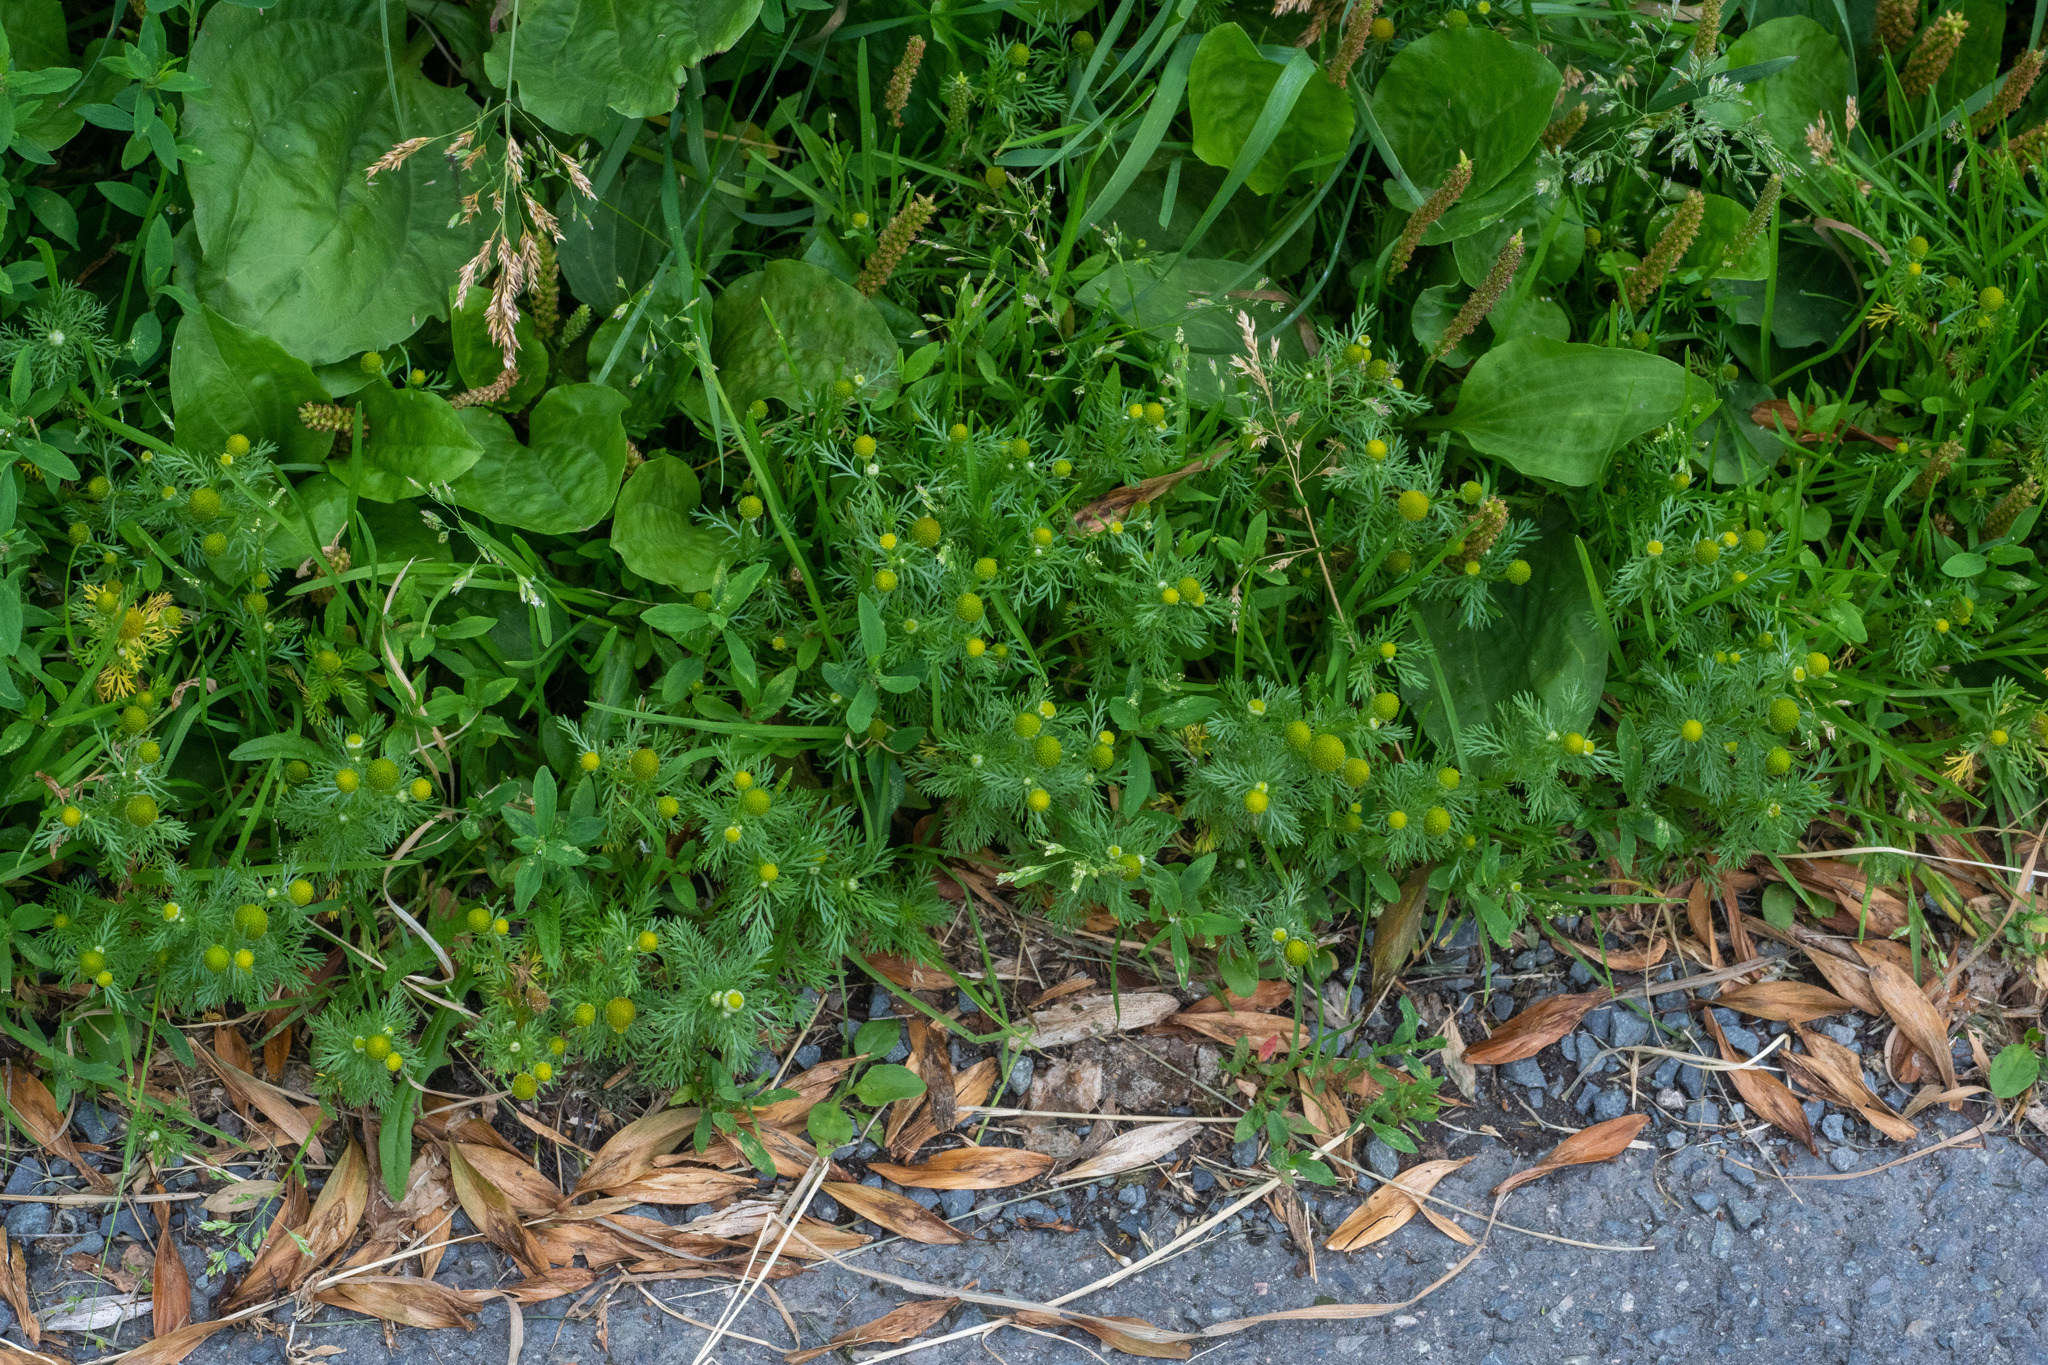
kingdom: Plantae
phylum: Tracheophyta
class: Magnoliopsida
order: Asterales
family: Asteraceae
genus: Matricaria
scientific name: Matricaria discoidea
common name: Disc mayweed
